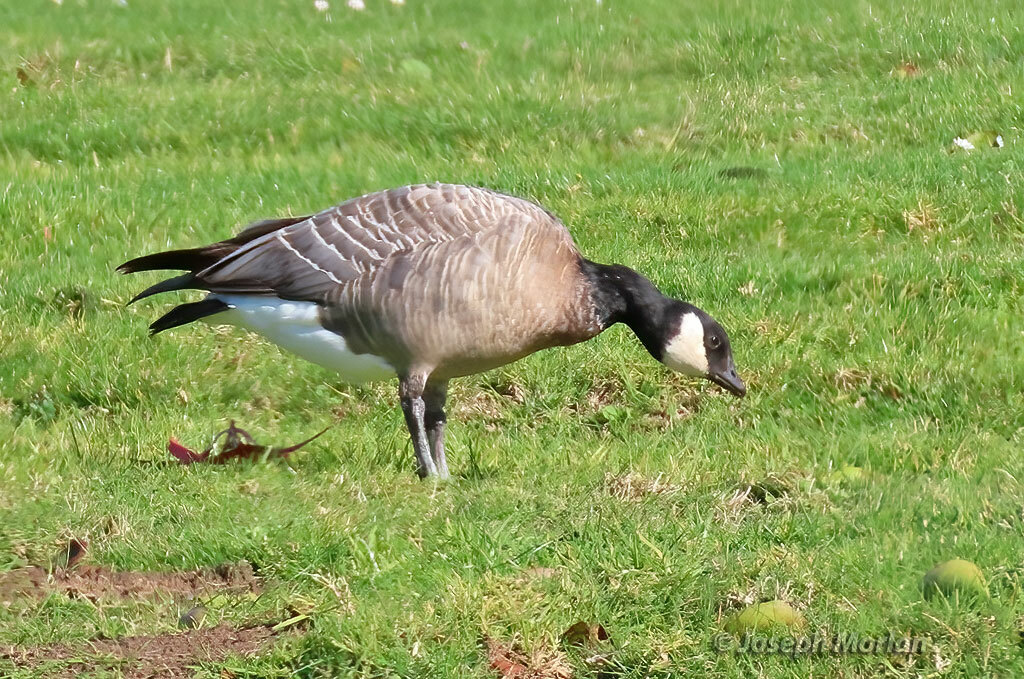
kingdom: Animalia
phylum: Chordata
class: Aves
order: Anseriformes
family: Anatidae
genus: Branta
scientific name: Branta hutchinsii
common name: Cackling goose
